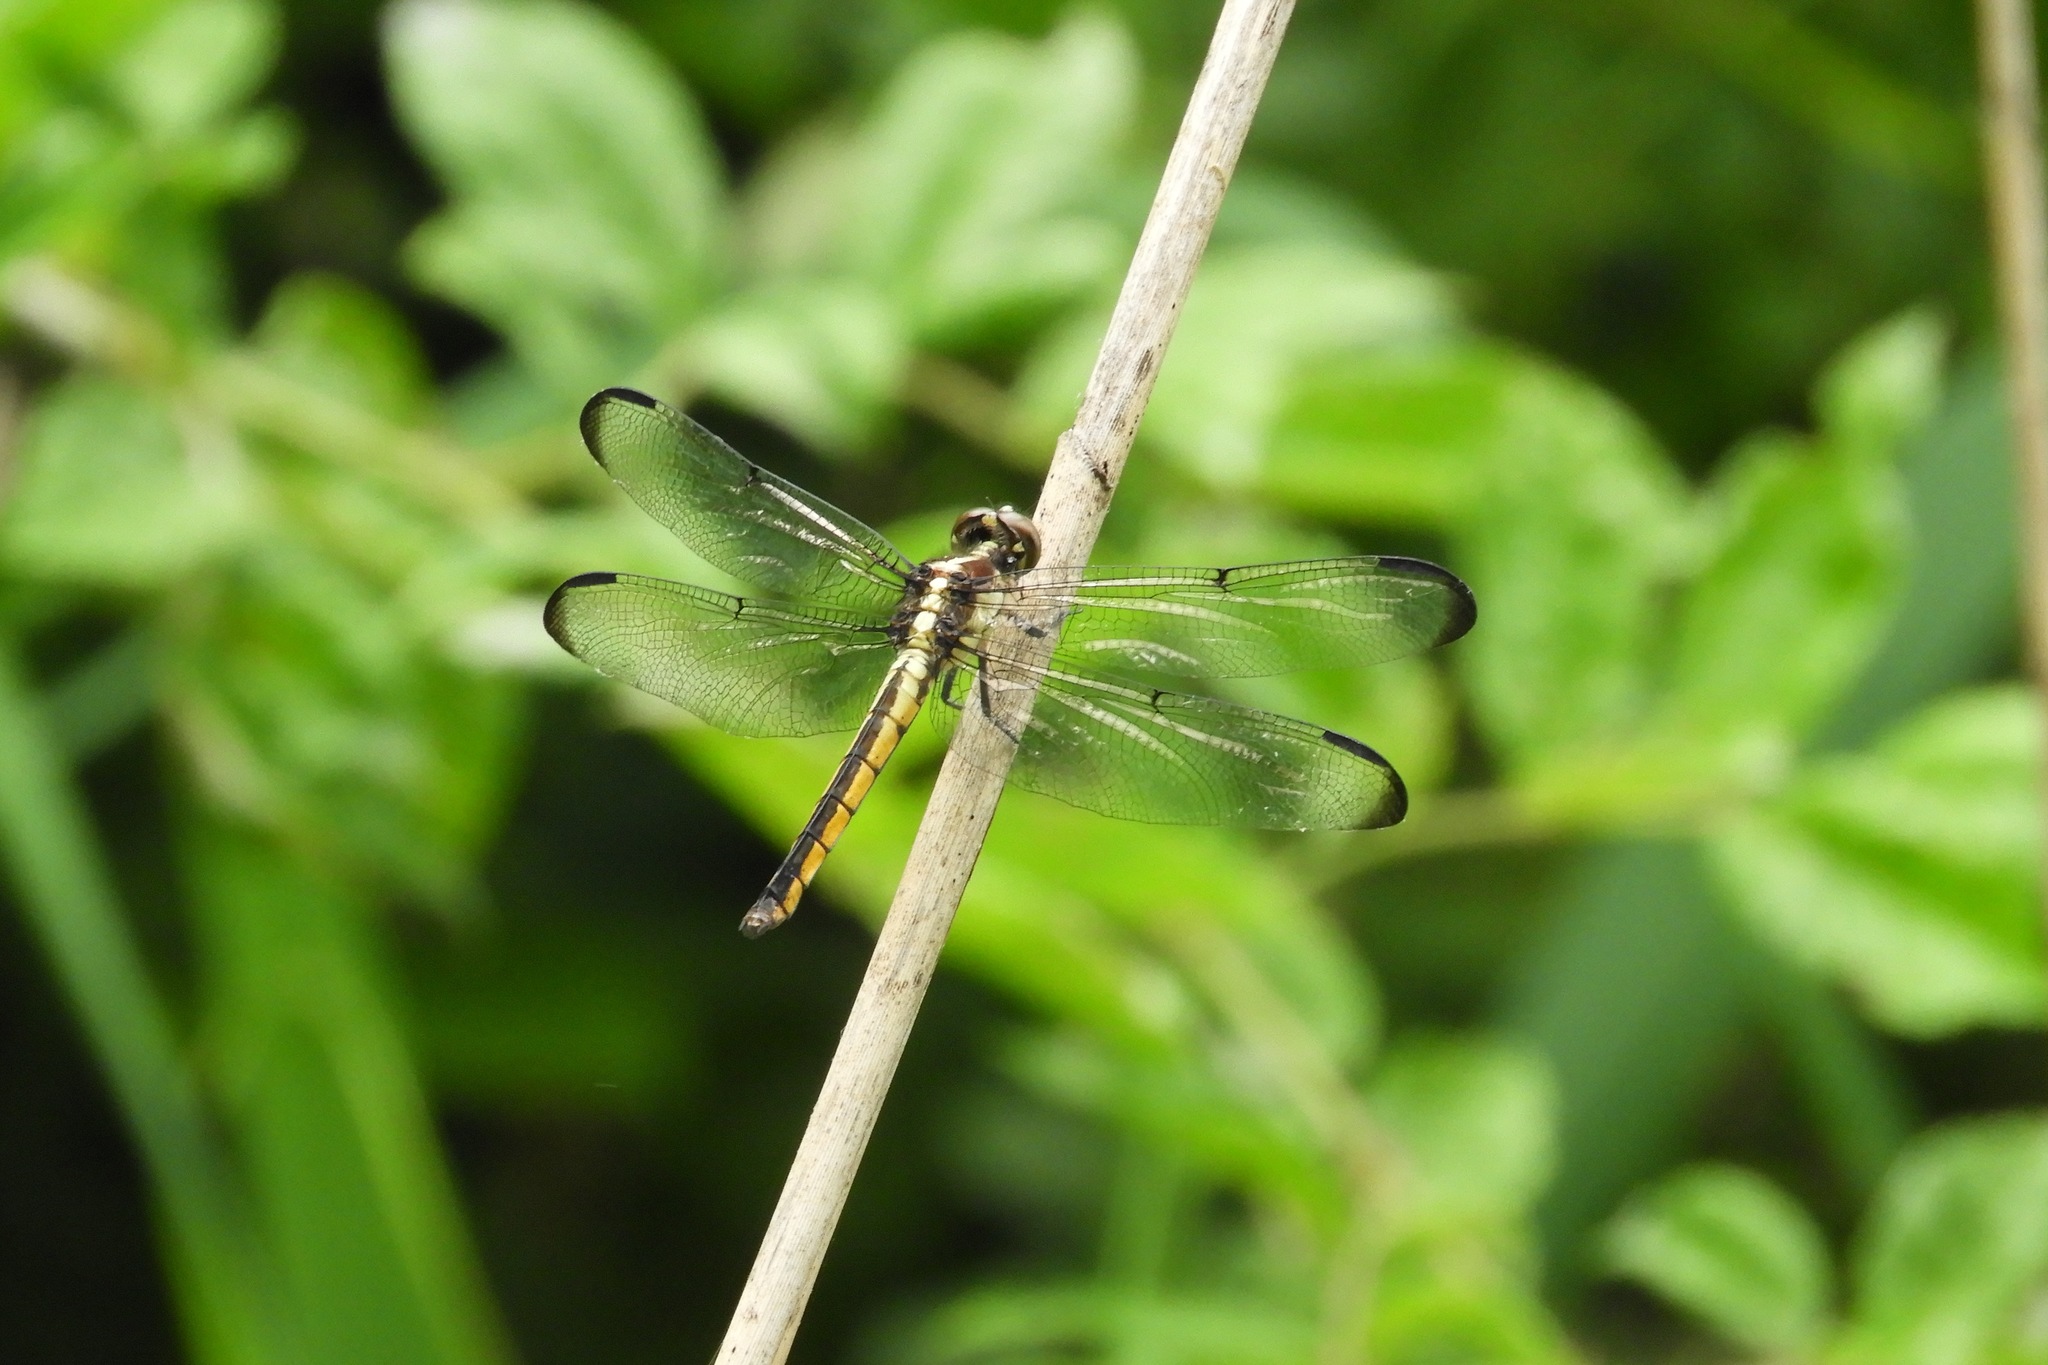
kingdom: Animalia
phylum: Arthropoda
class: Insecta
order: Odonata
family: Libellulidae
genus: Libellula
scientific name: Libellula incesta
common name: Slaty skimmer
